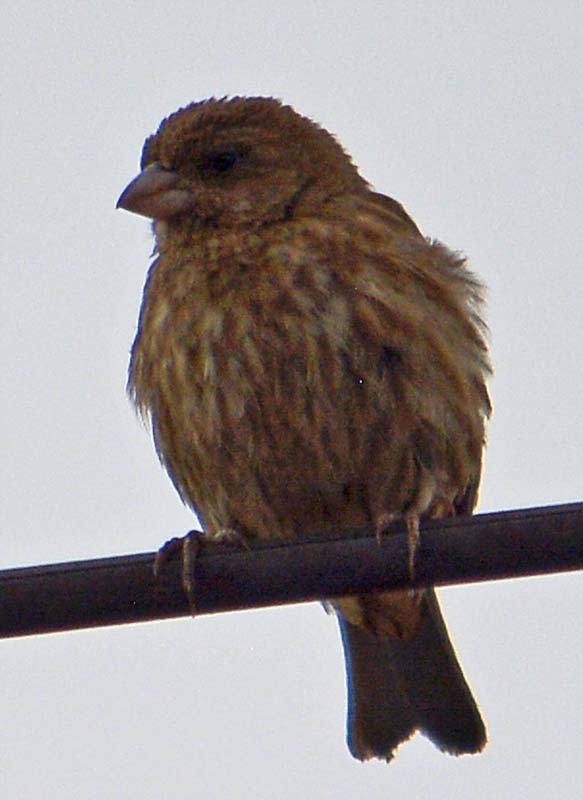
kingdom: Animalia
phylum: Chordata
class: Aves
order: Passeriformes
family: Fringillidae
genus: Haemorhous
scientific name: Haemorhous mexicanus
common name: House finch
